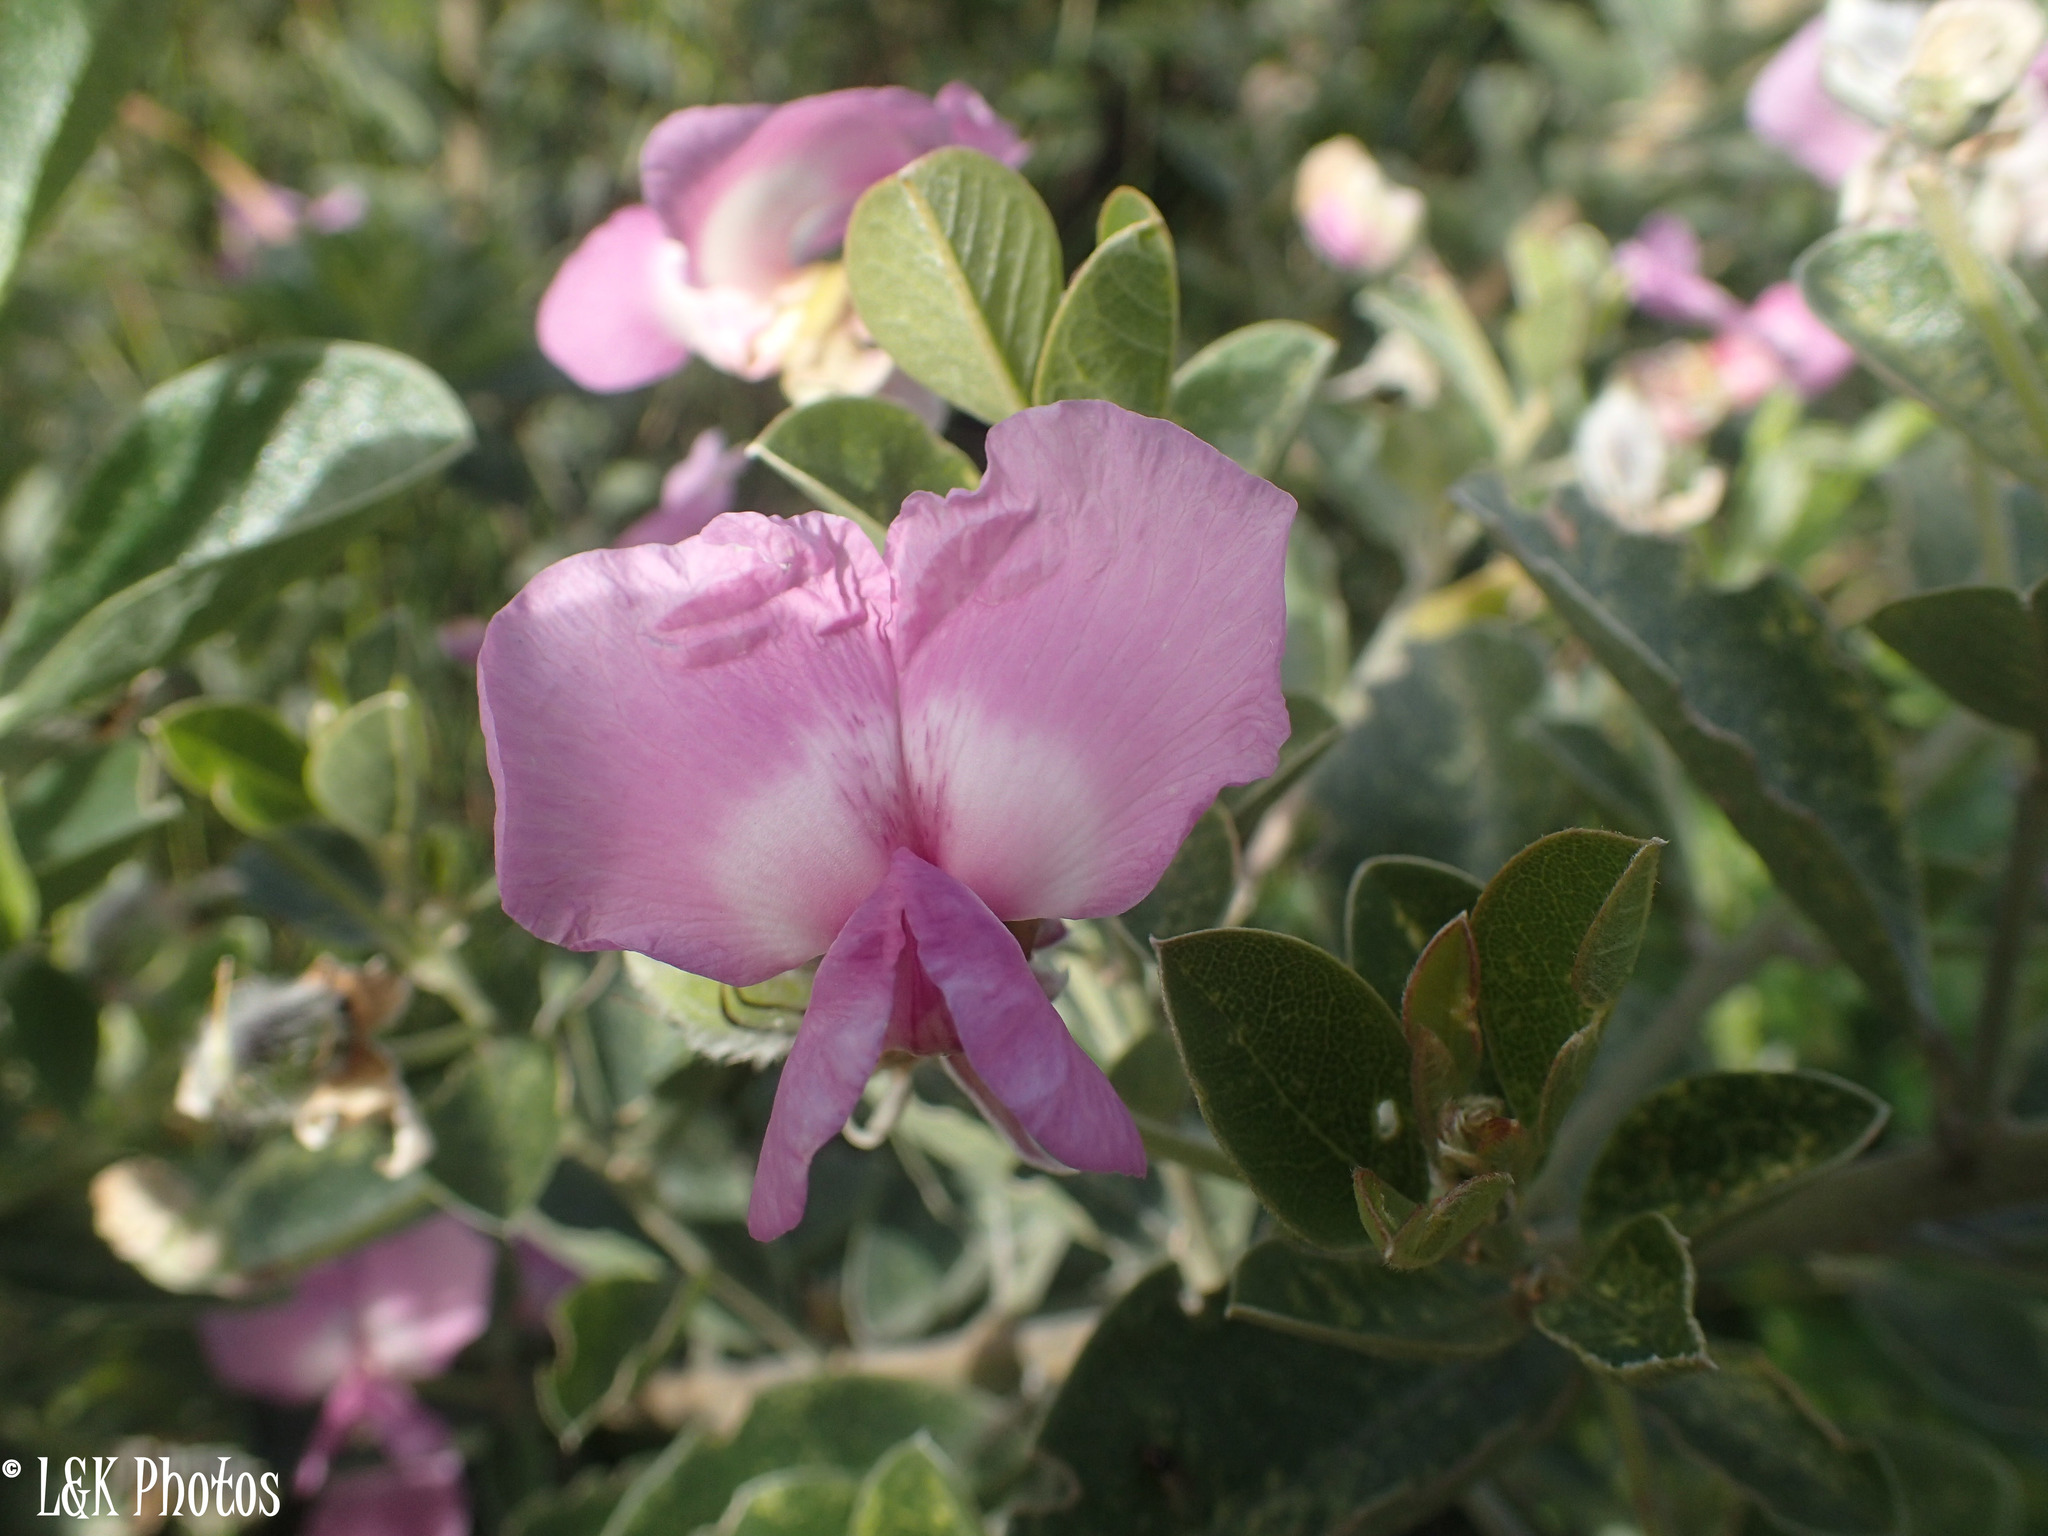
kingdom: Plantae
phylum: Tracheophyta
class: Magnoliopsida
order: Fabales
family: Fabaceae
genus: Podalyria
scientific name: Podalyria calyptrata
